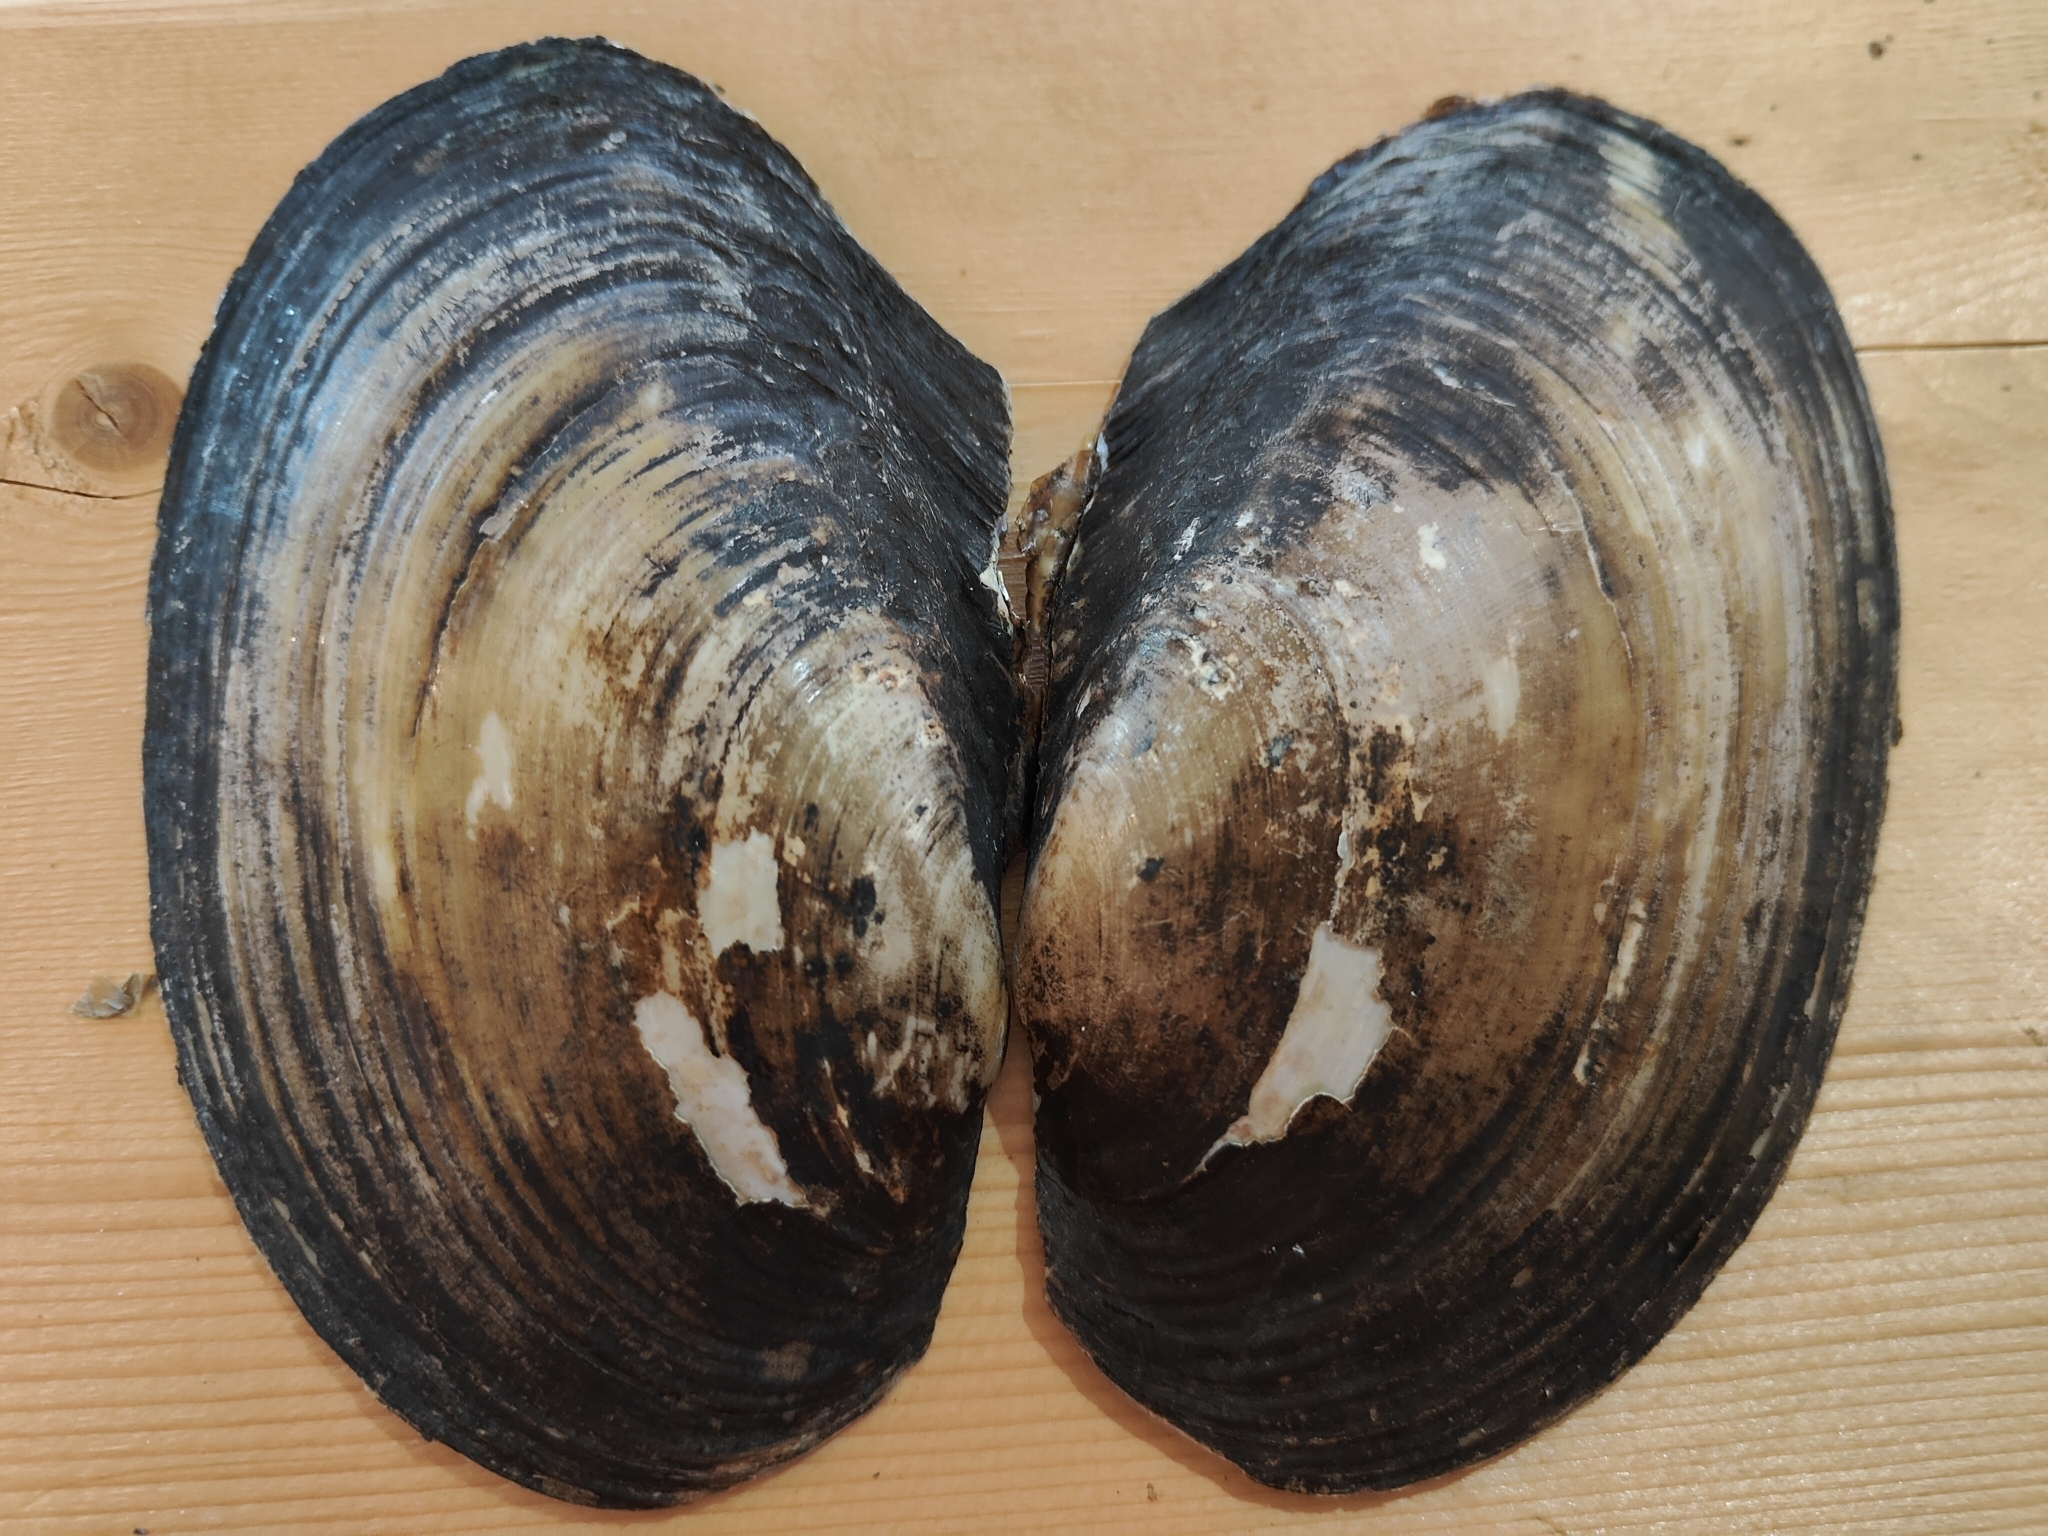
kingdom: Animalia
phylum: Mollusca
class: Bivalvia
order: Unionida
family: Unionidae
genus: Potamilus
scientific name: Potamilus fragilis
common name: Fragile papershell
